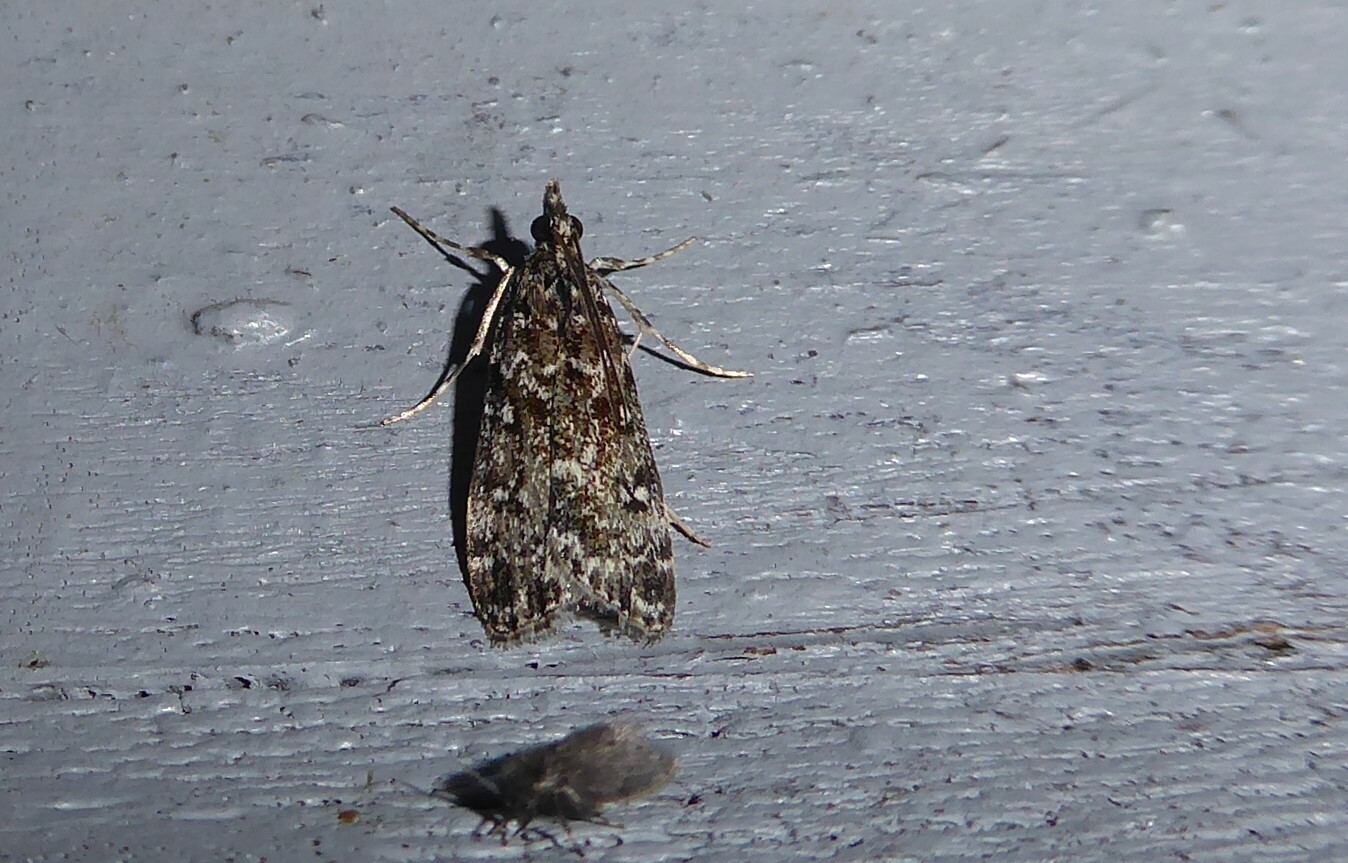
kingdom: Animalia
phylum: Arthropoda
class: Insecta
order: Lepidoptera
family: Crambidae
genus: Eudonia
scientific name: Eudonia philerga
